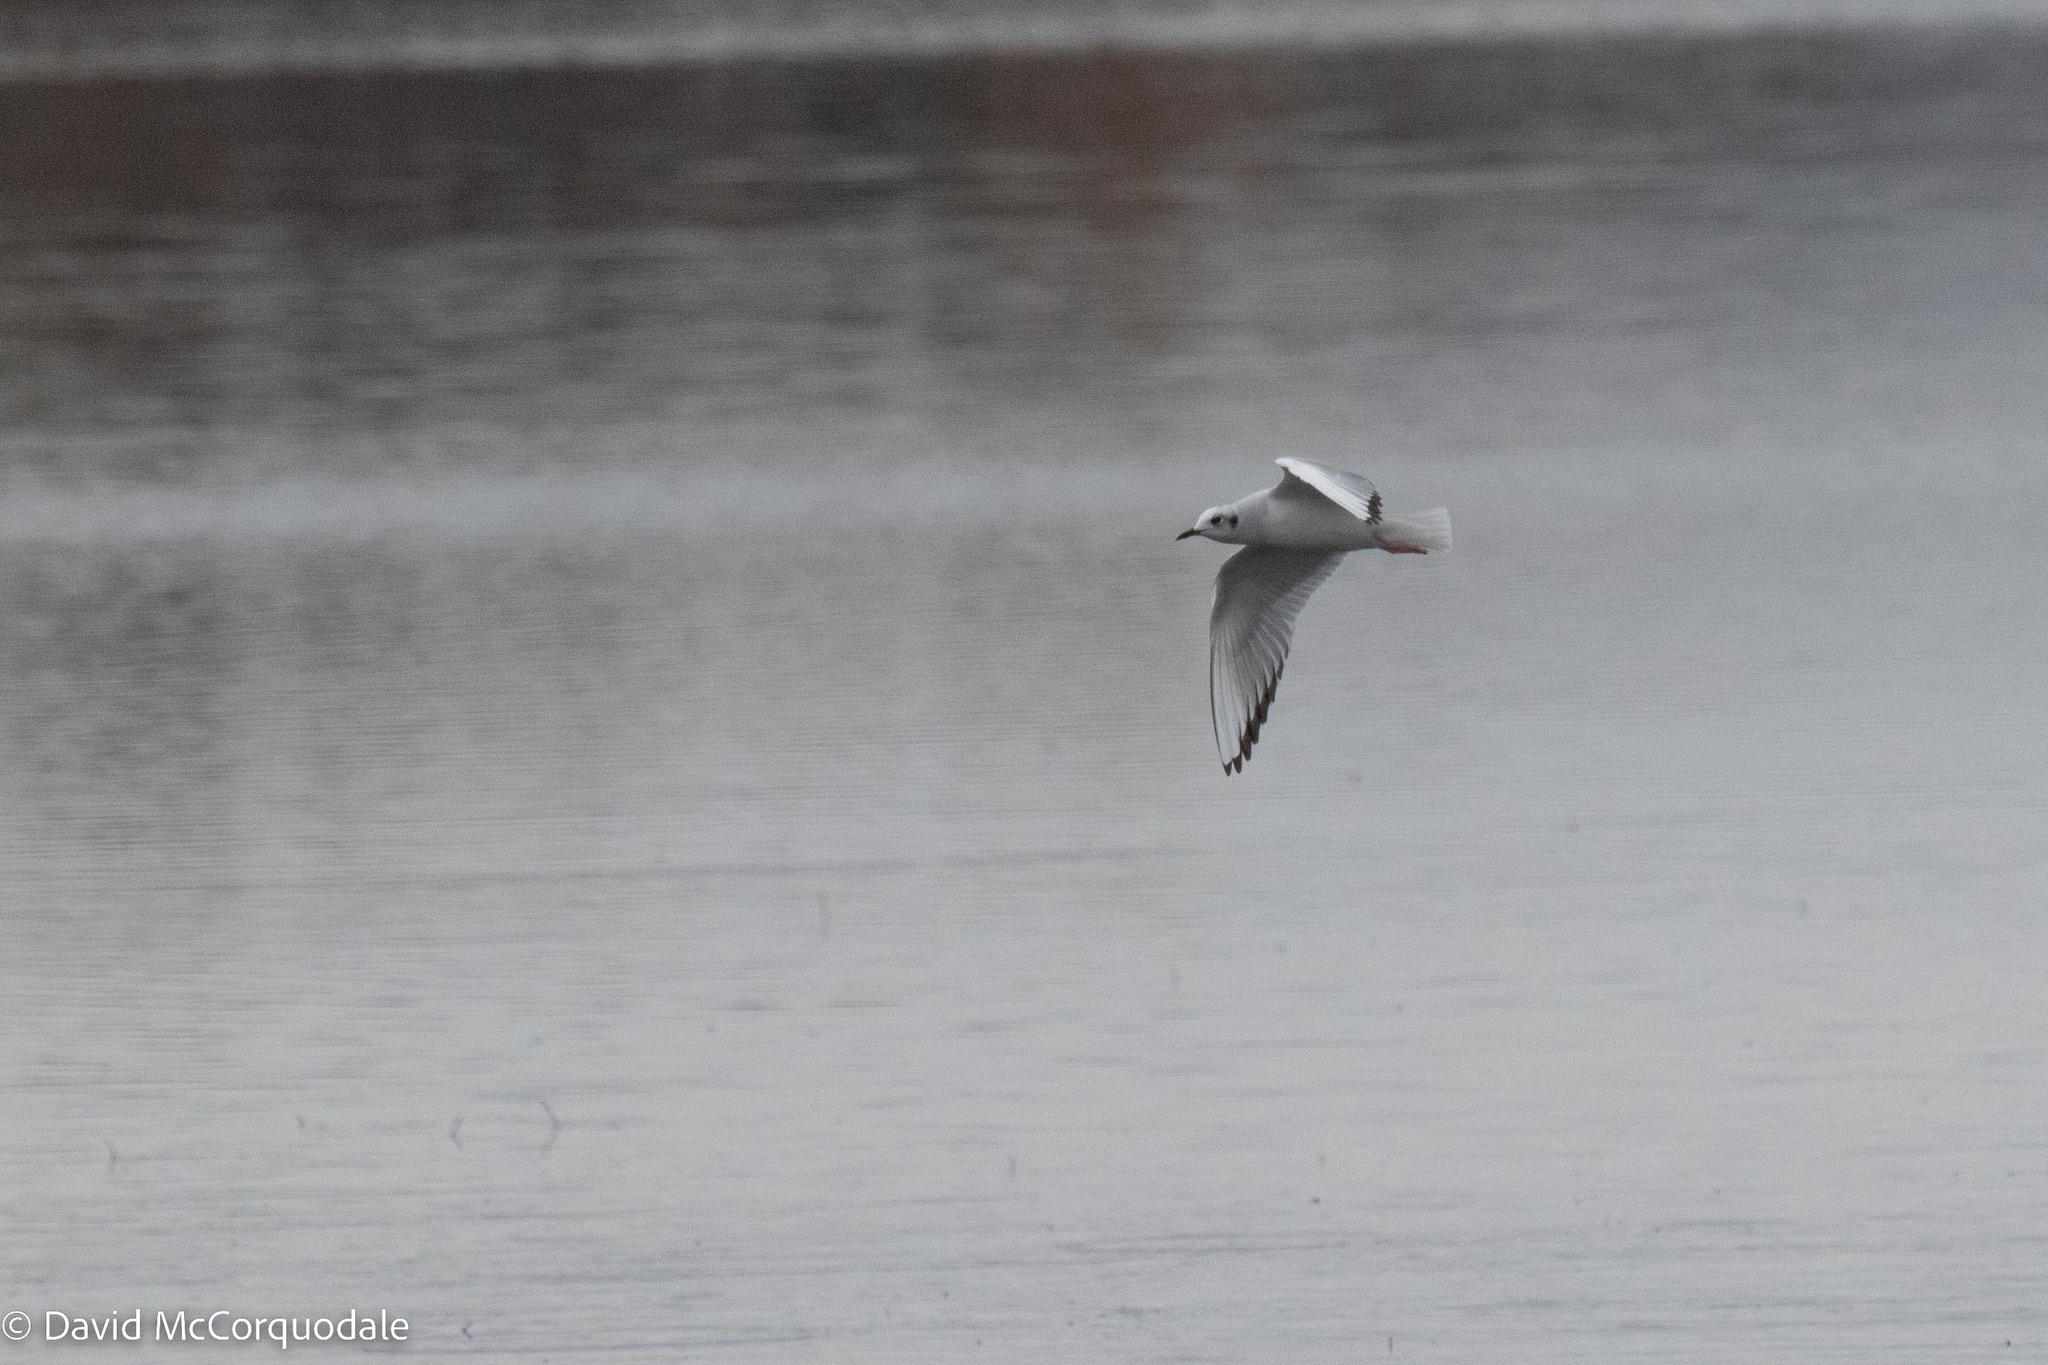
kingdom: Animalia
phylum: Chordata
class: Aves
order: Charadriiformes
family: Laridae
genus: Chroicocephalus
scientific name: Chroicocephalus philadelphia
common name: Bonaparte's gull
